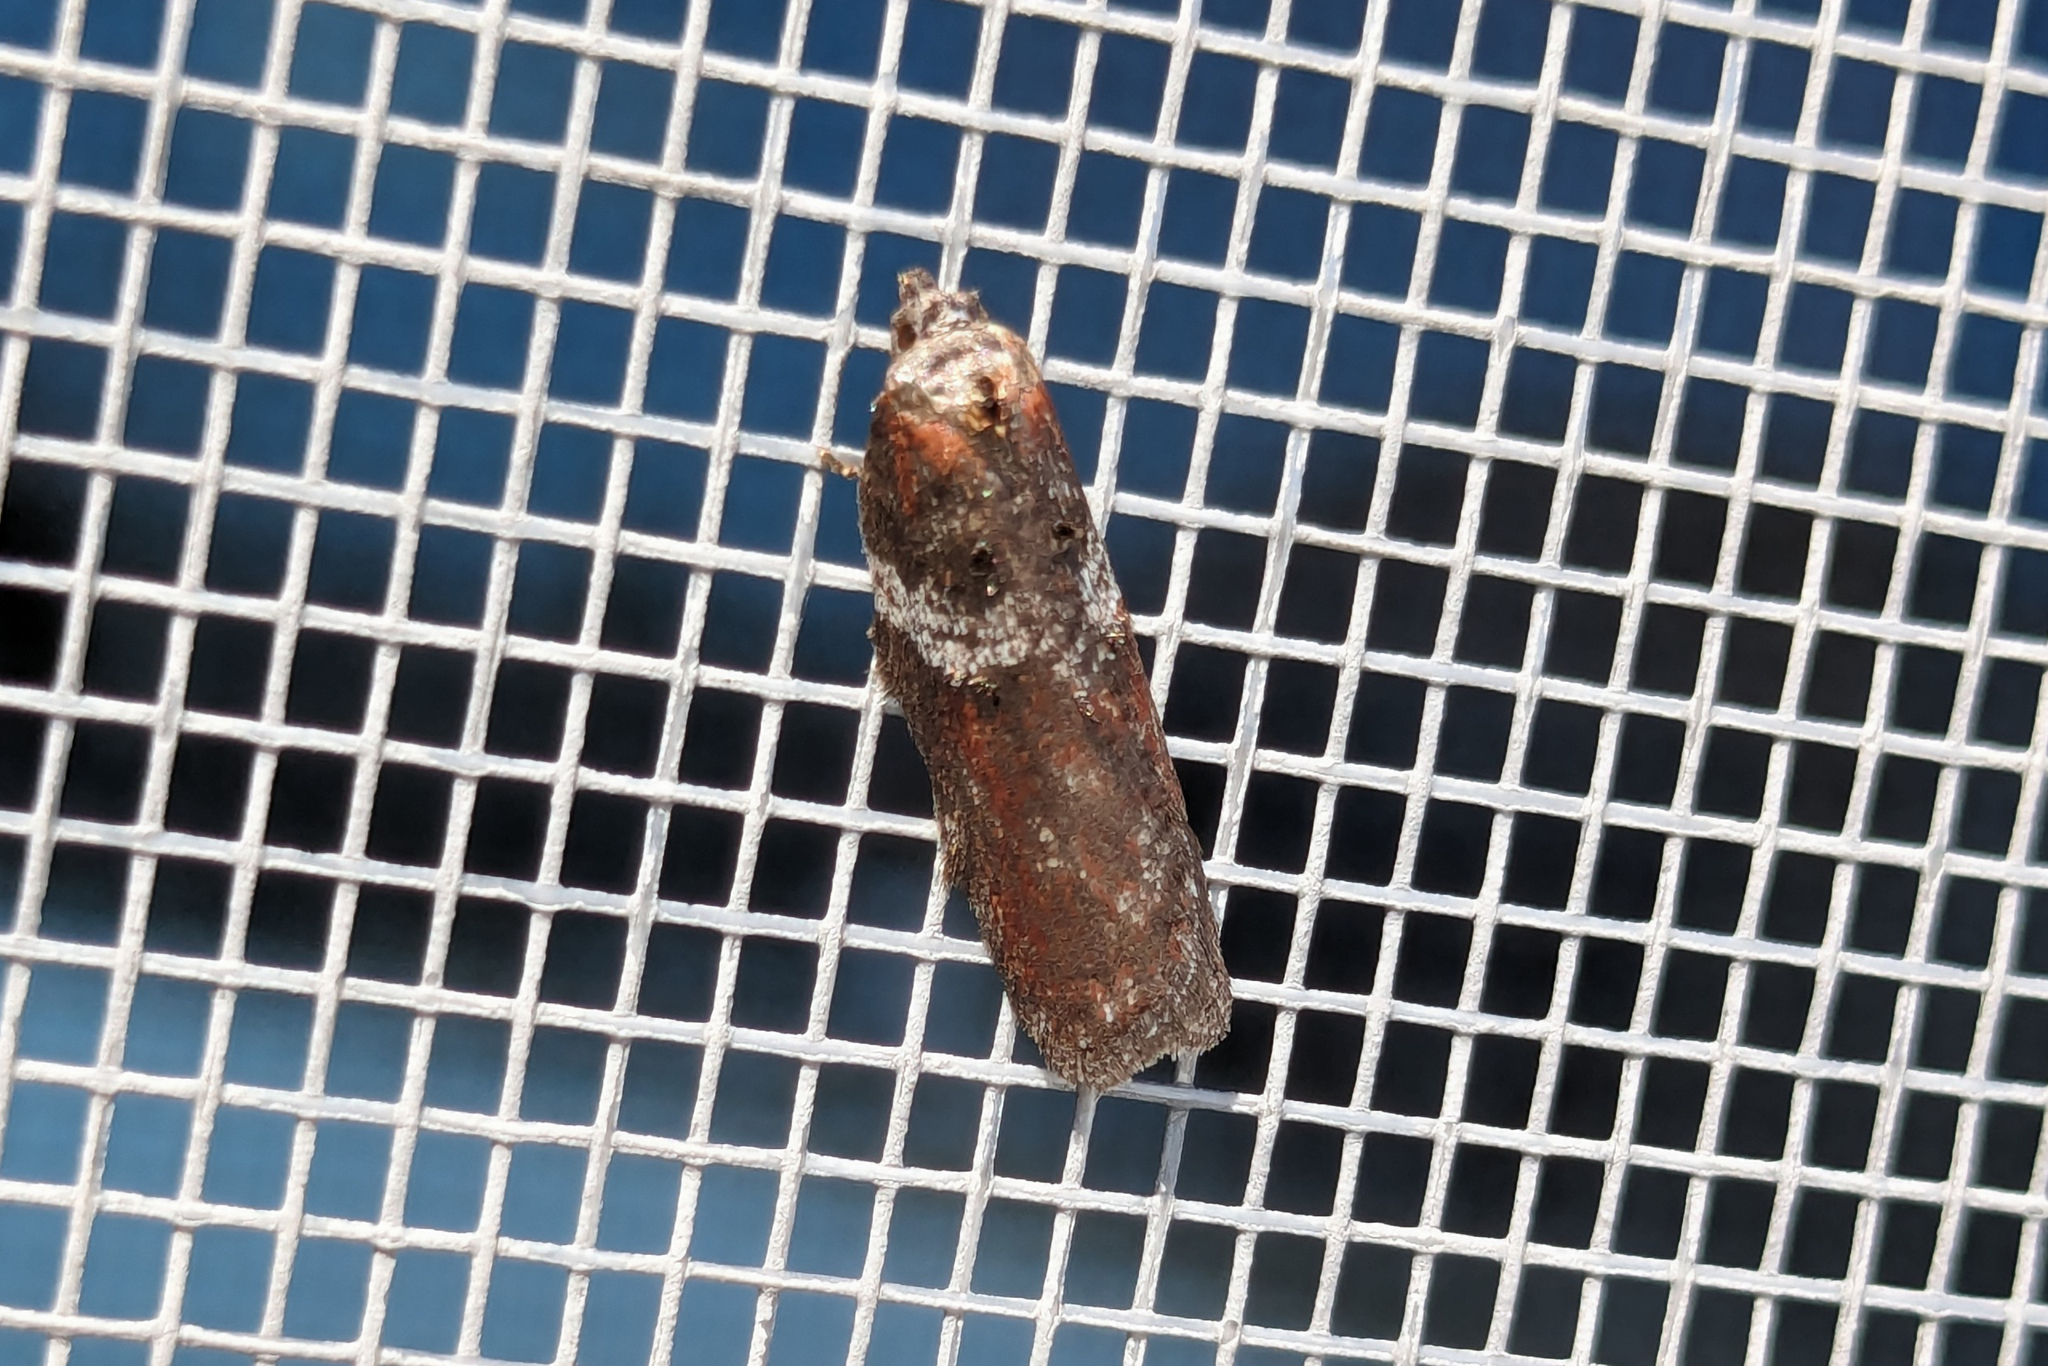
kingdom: Animalia
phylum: Arthropoda
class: Insecta
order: Lepidoptera
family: Tortricidae
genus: Acleris
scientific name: Acleris celiana
